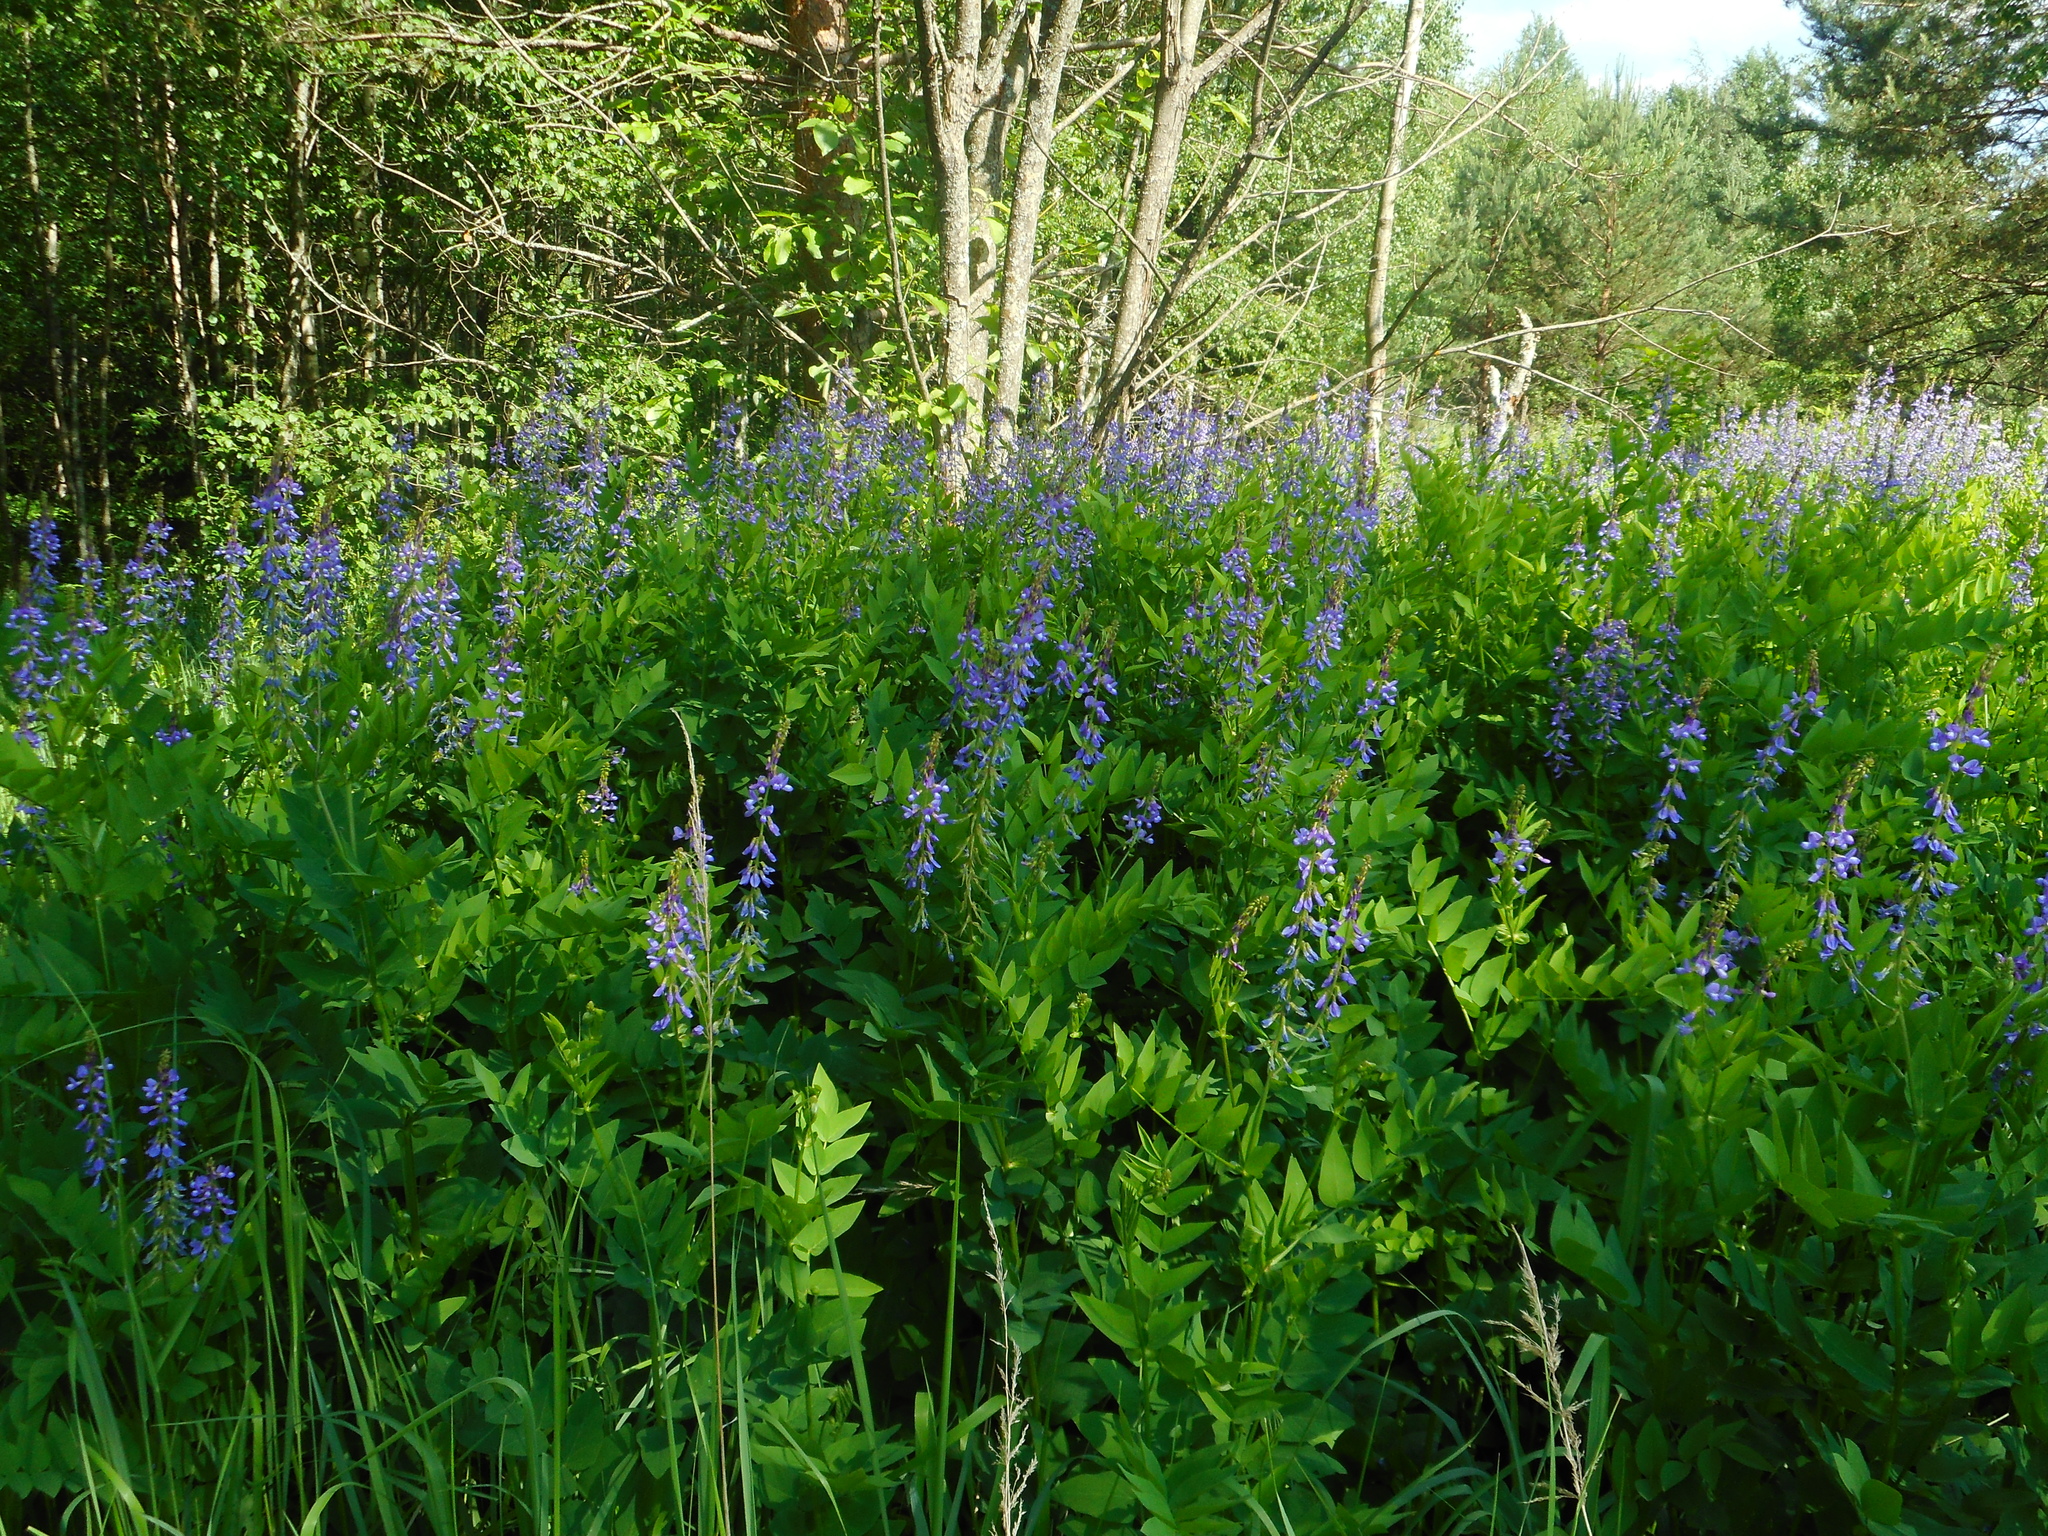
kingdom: Plantae
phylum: Tracheophyta
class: Magnoliopsida
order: Fabales
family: Fabaceae
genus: Galega
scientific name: Galega orientalis
